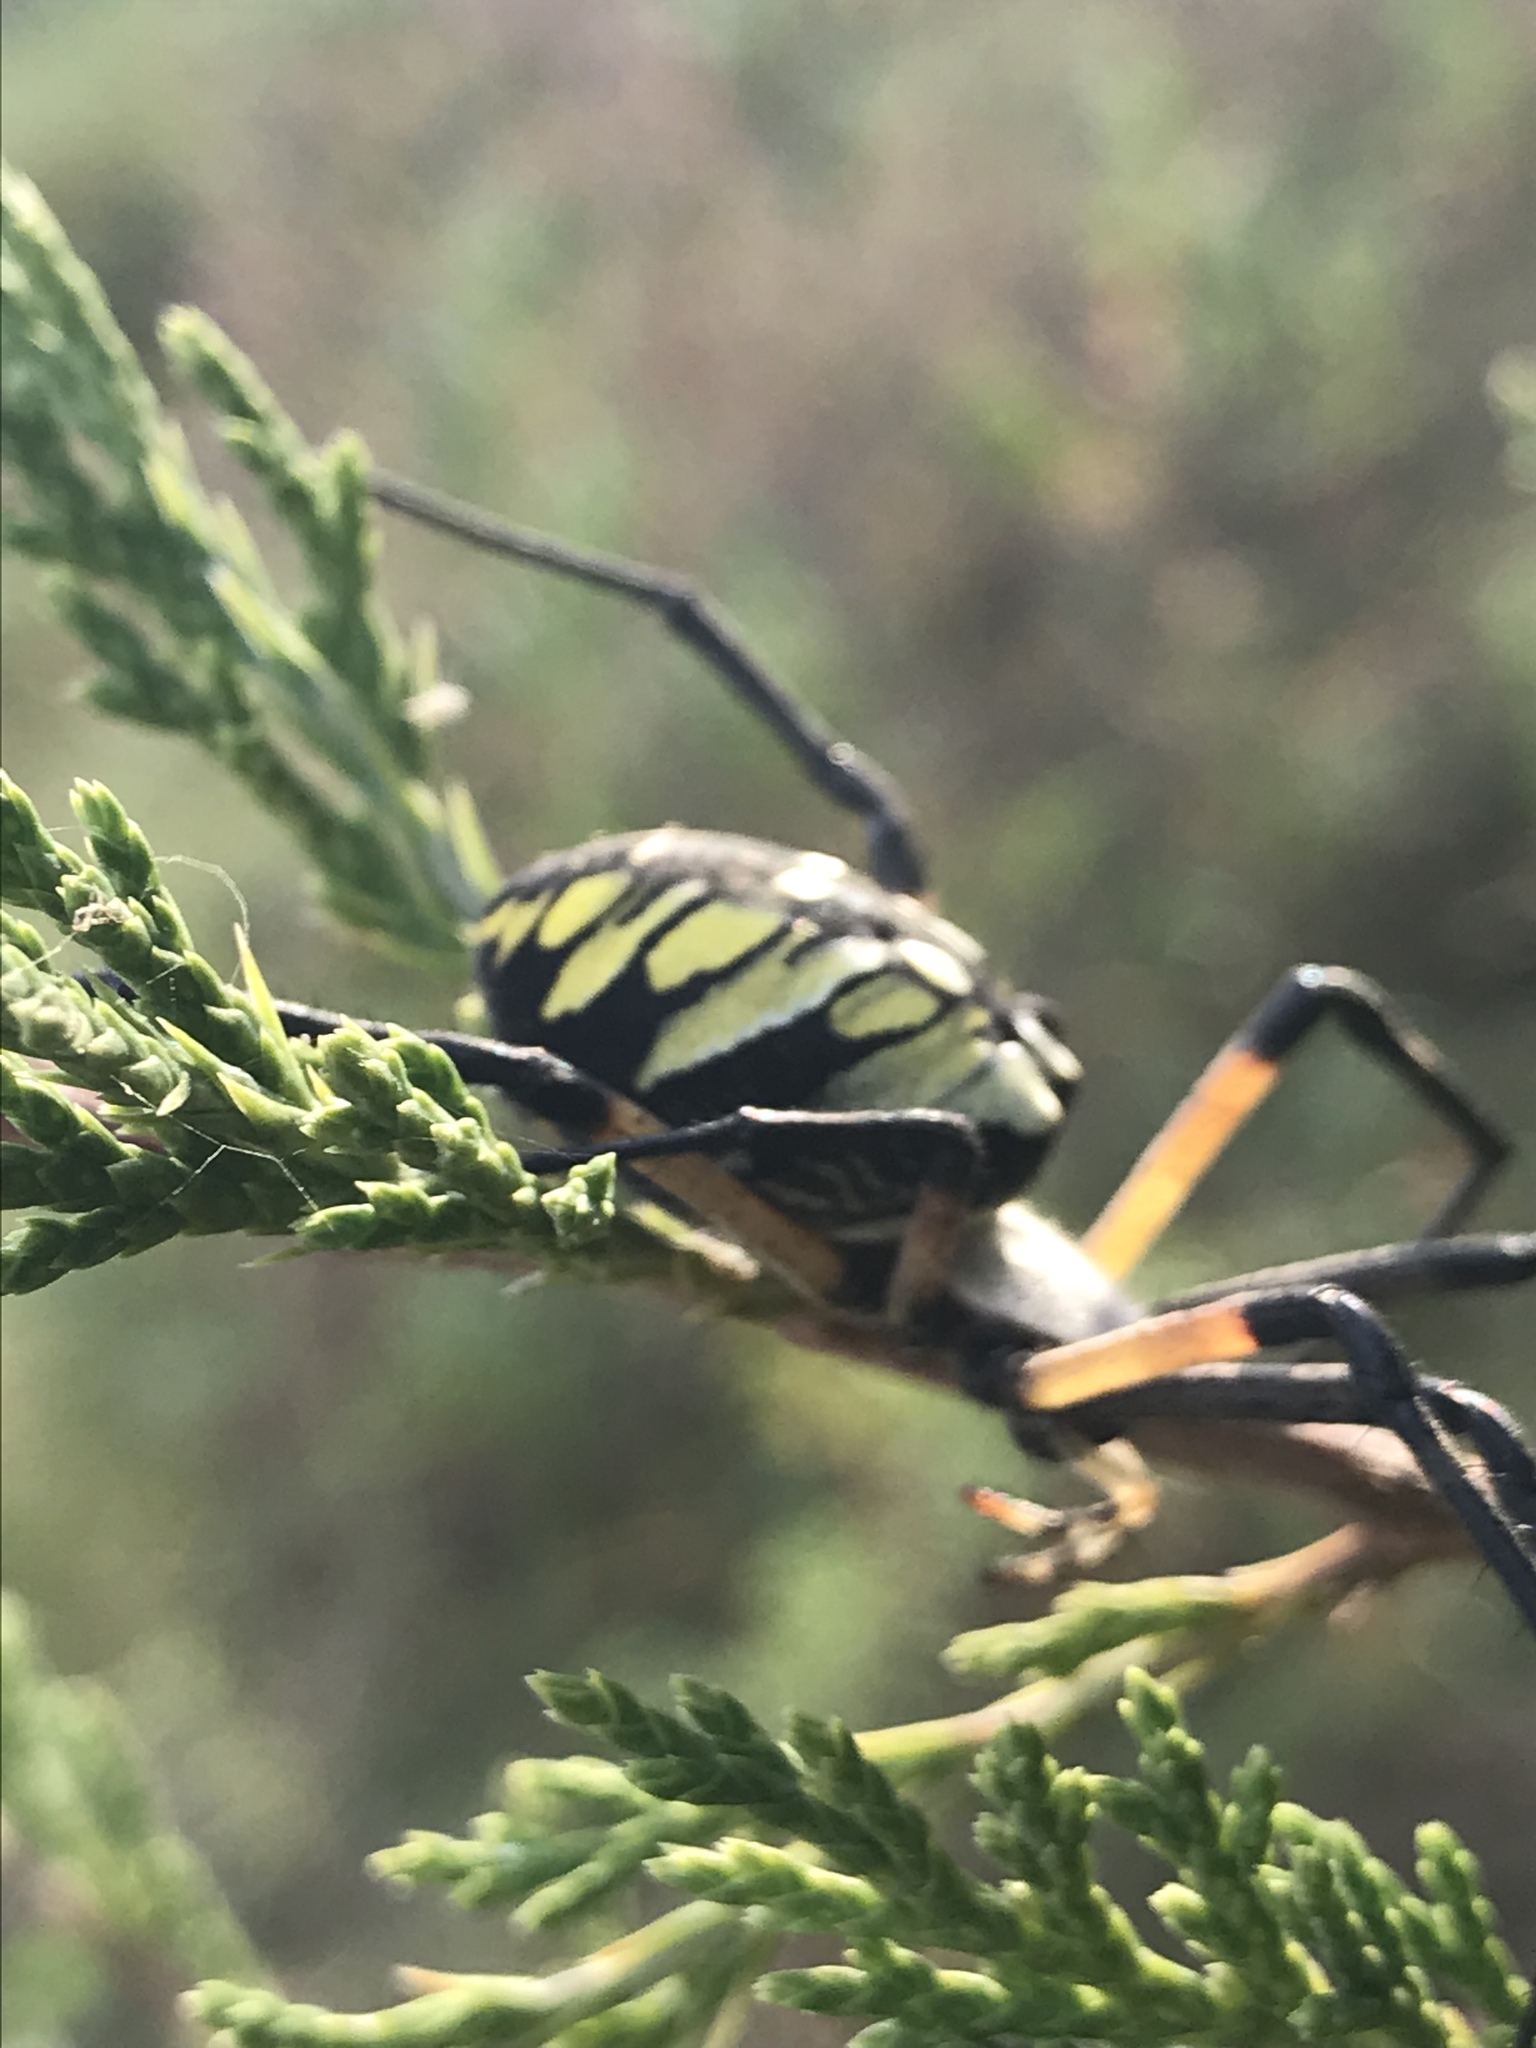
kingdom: Animalia
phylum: Arthropoda
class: Arachnida
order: Araneae
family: Araneidae
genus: Argiope
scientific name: Argiope aurantia
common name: Orb weavers
